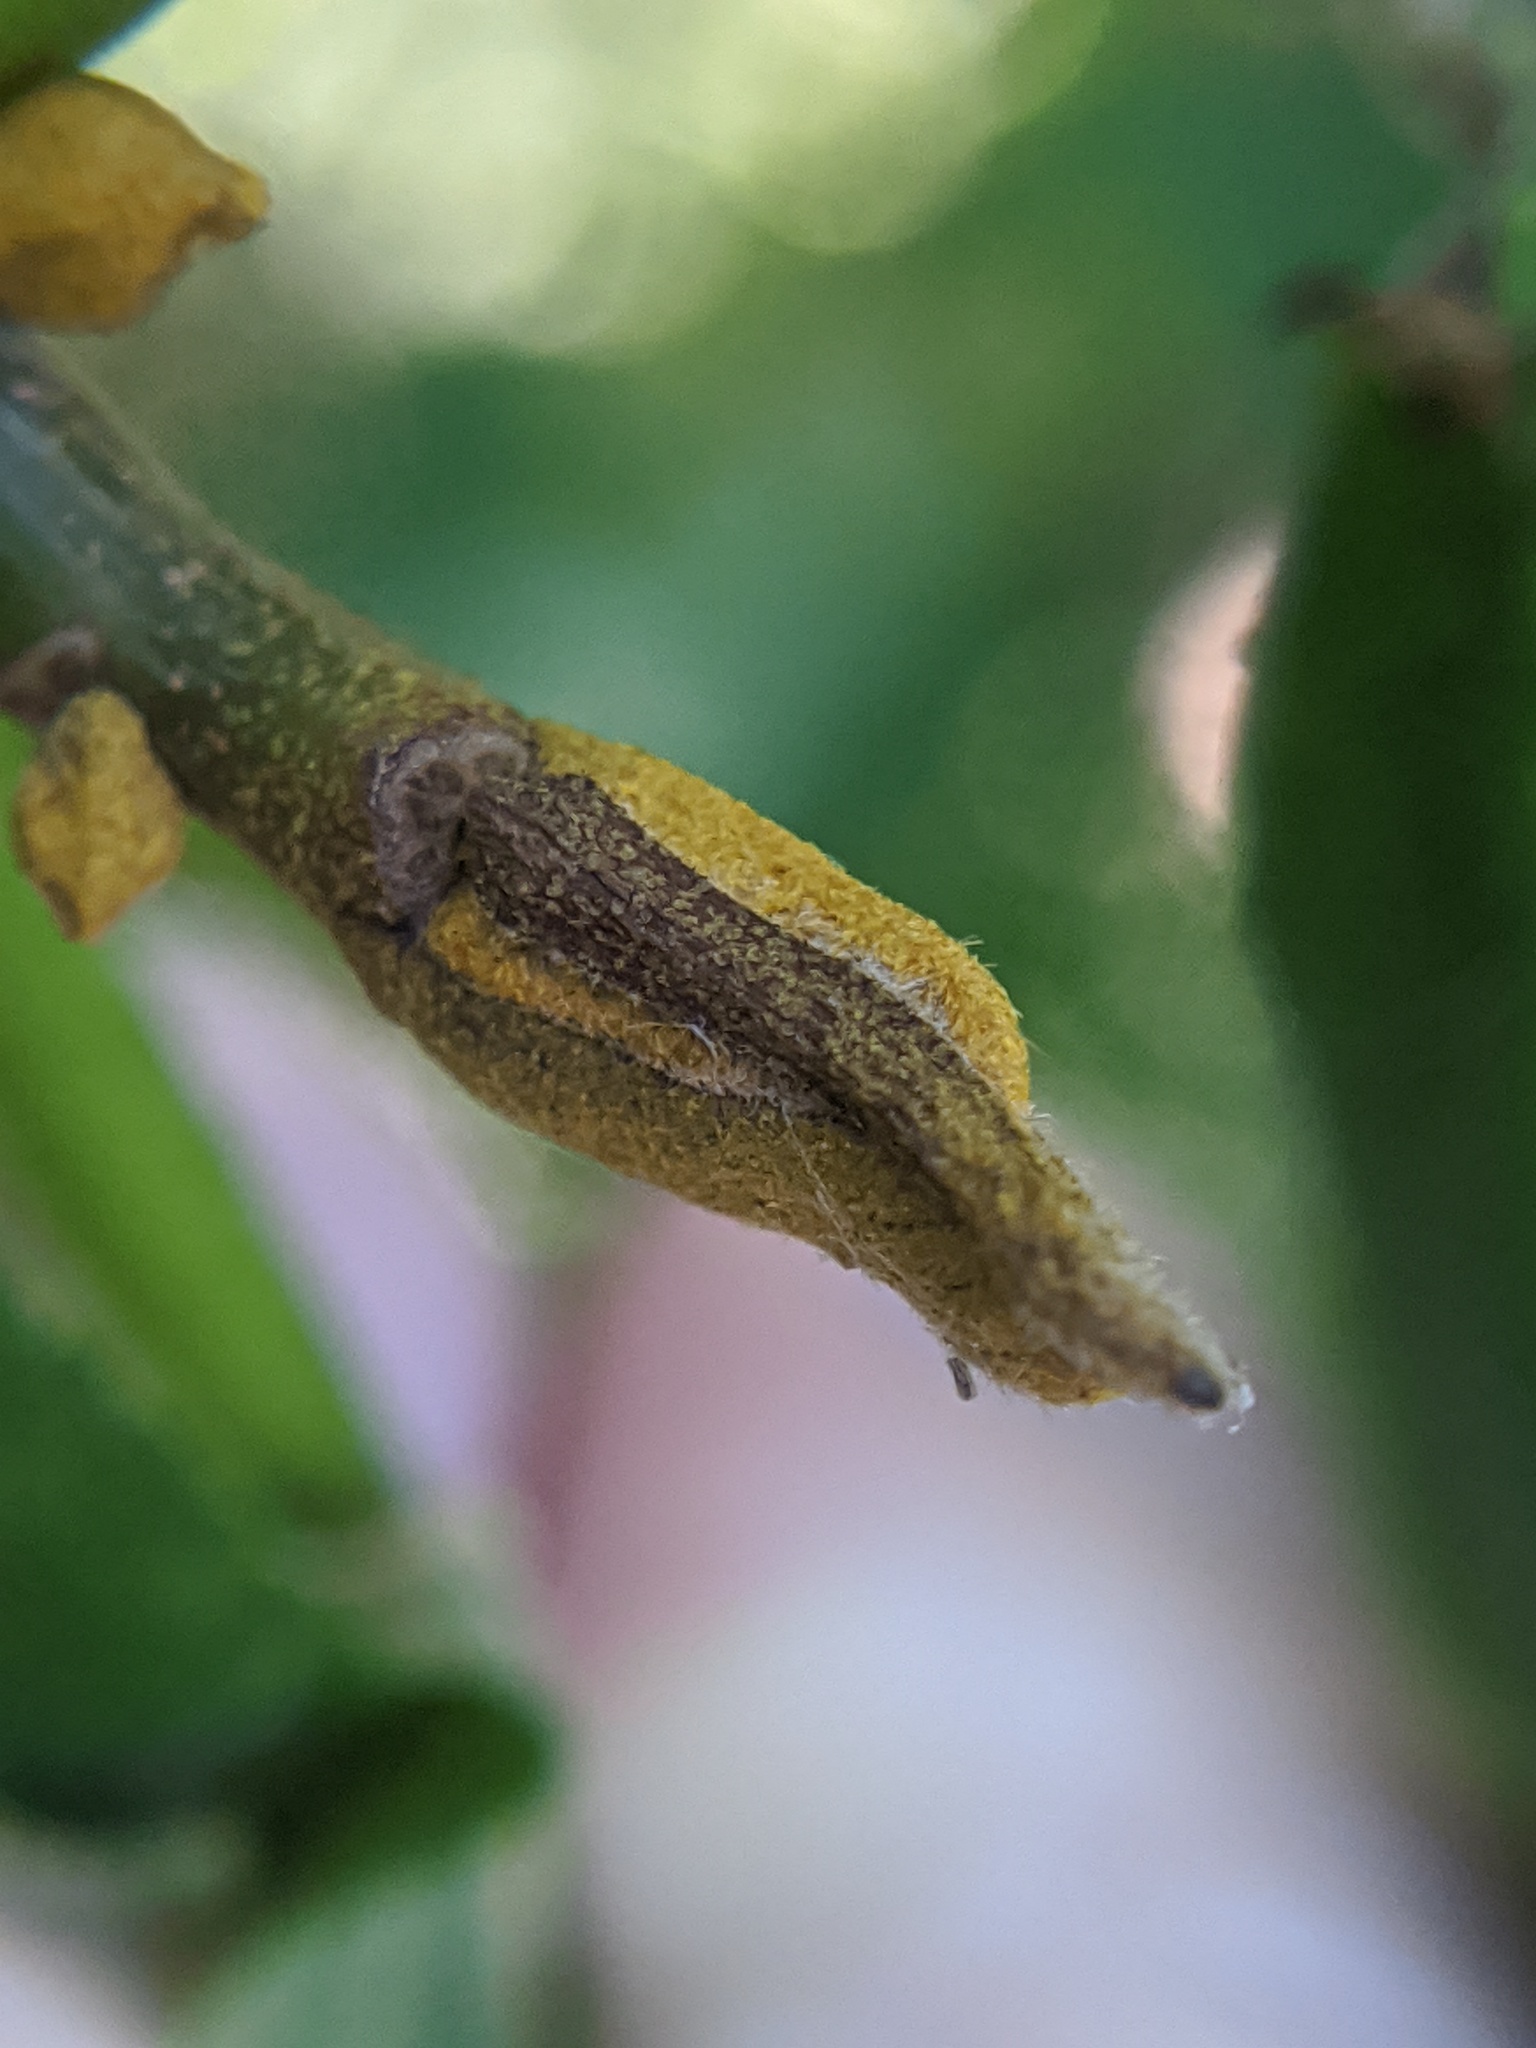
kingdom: Plantae
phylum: Tracheophyta
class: Magnoliopsida
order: Fagales
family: Juglandaceae
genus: Carya
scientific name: Carya cordiformis
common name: Bitternut hickory
